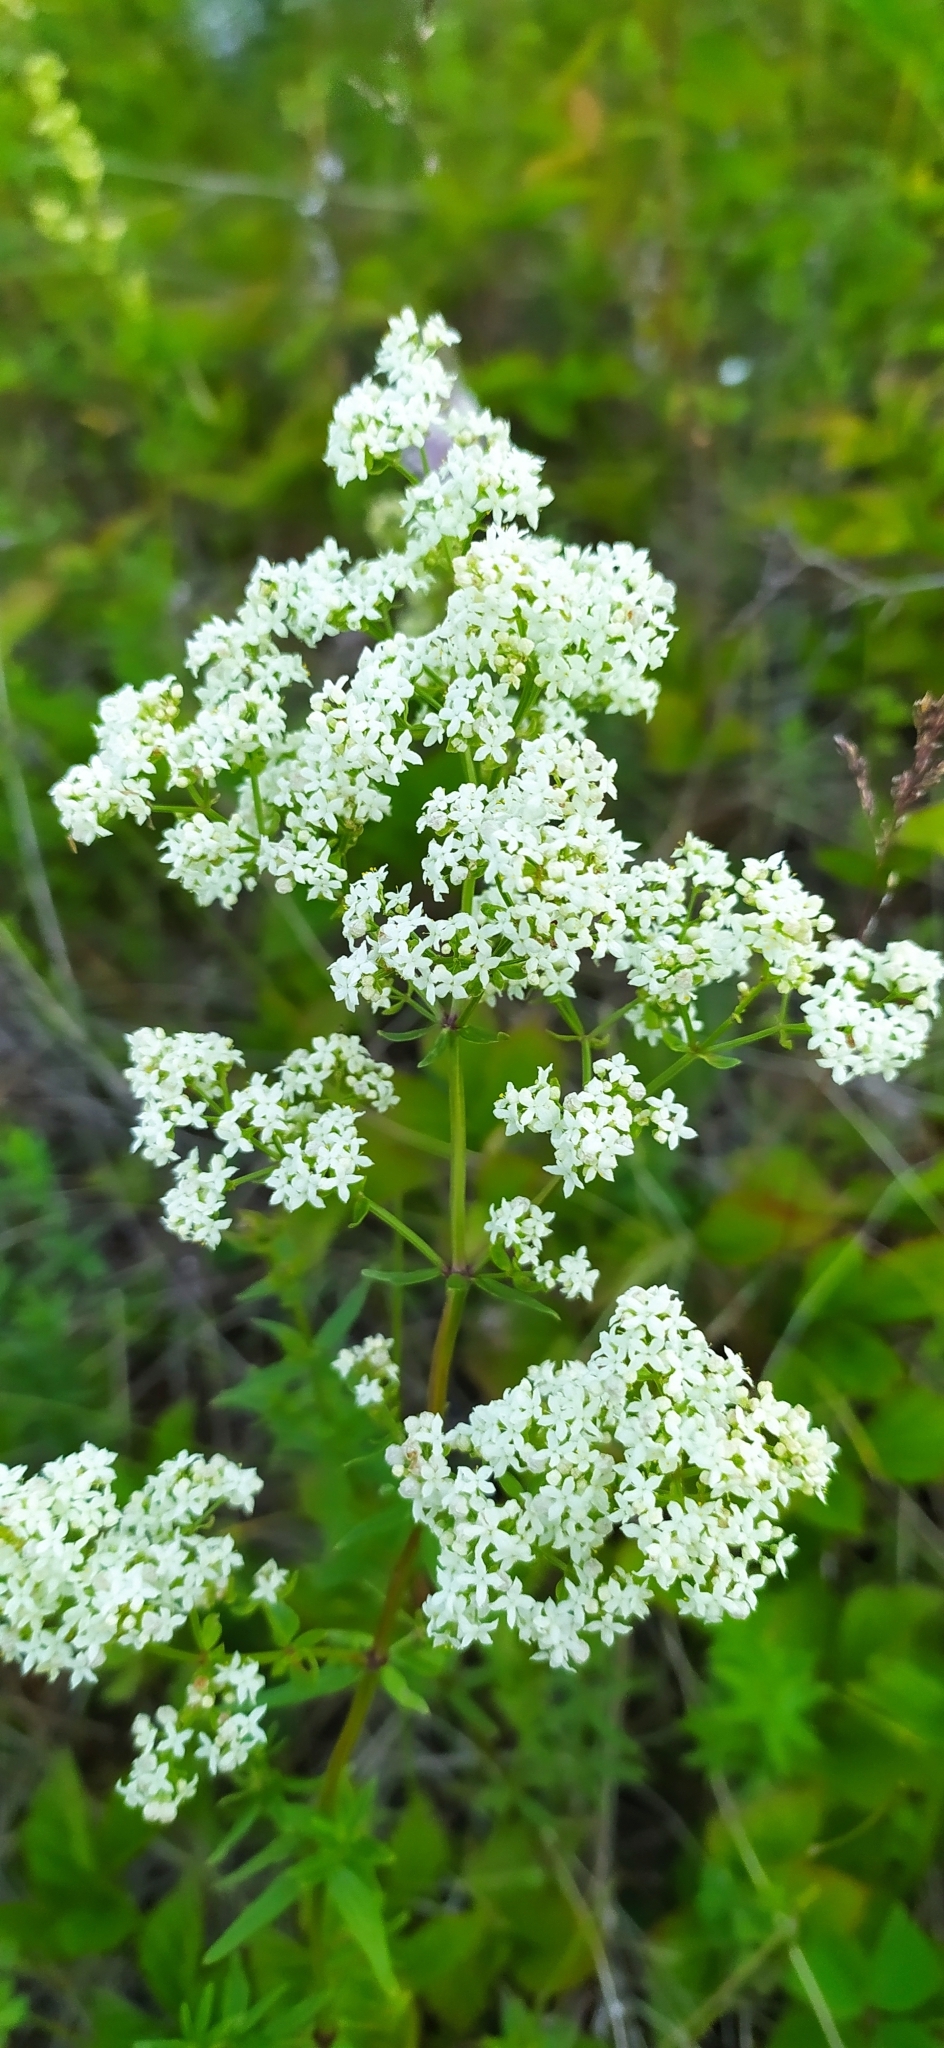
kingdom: Plantae
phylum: Tracheophyta
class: Magnoliopsida
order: Gentianales
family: Rubiaceae
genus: Galium
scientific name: Galium boreale
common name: Northern bedstraw
